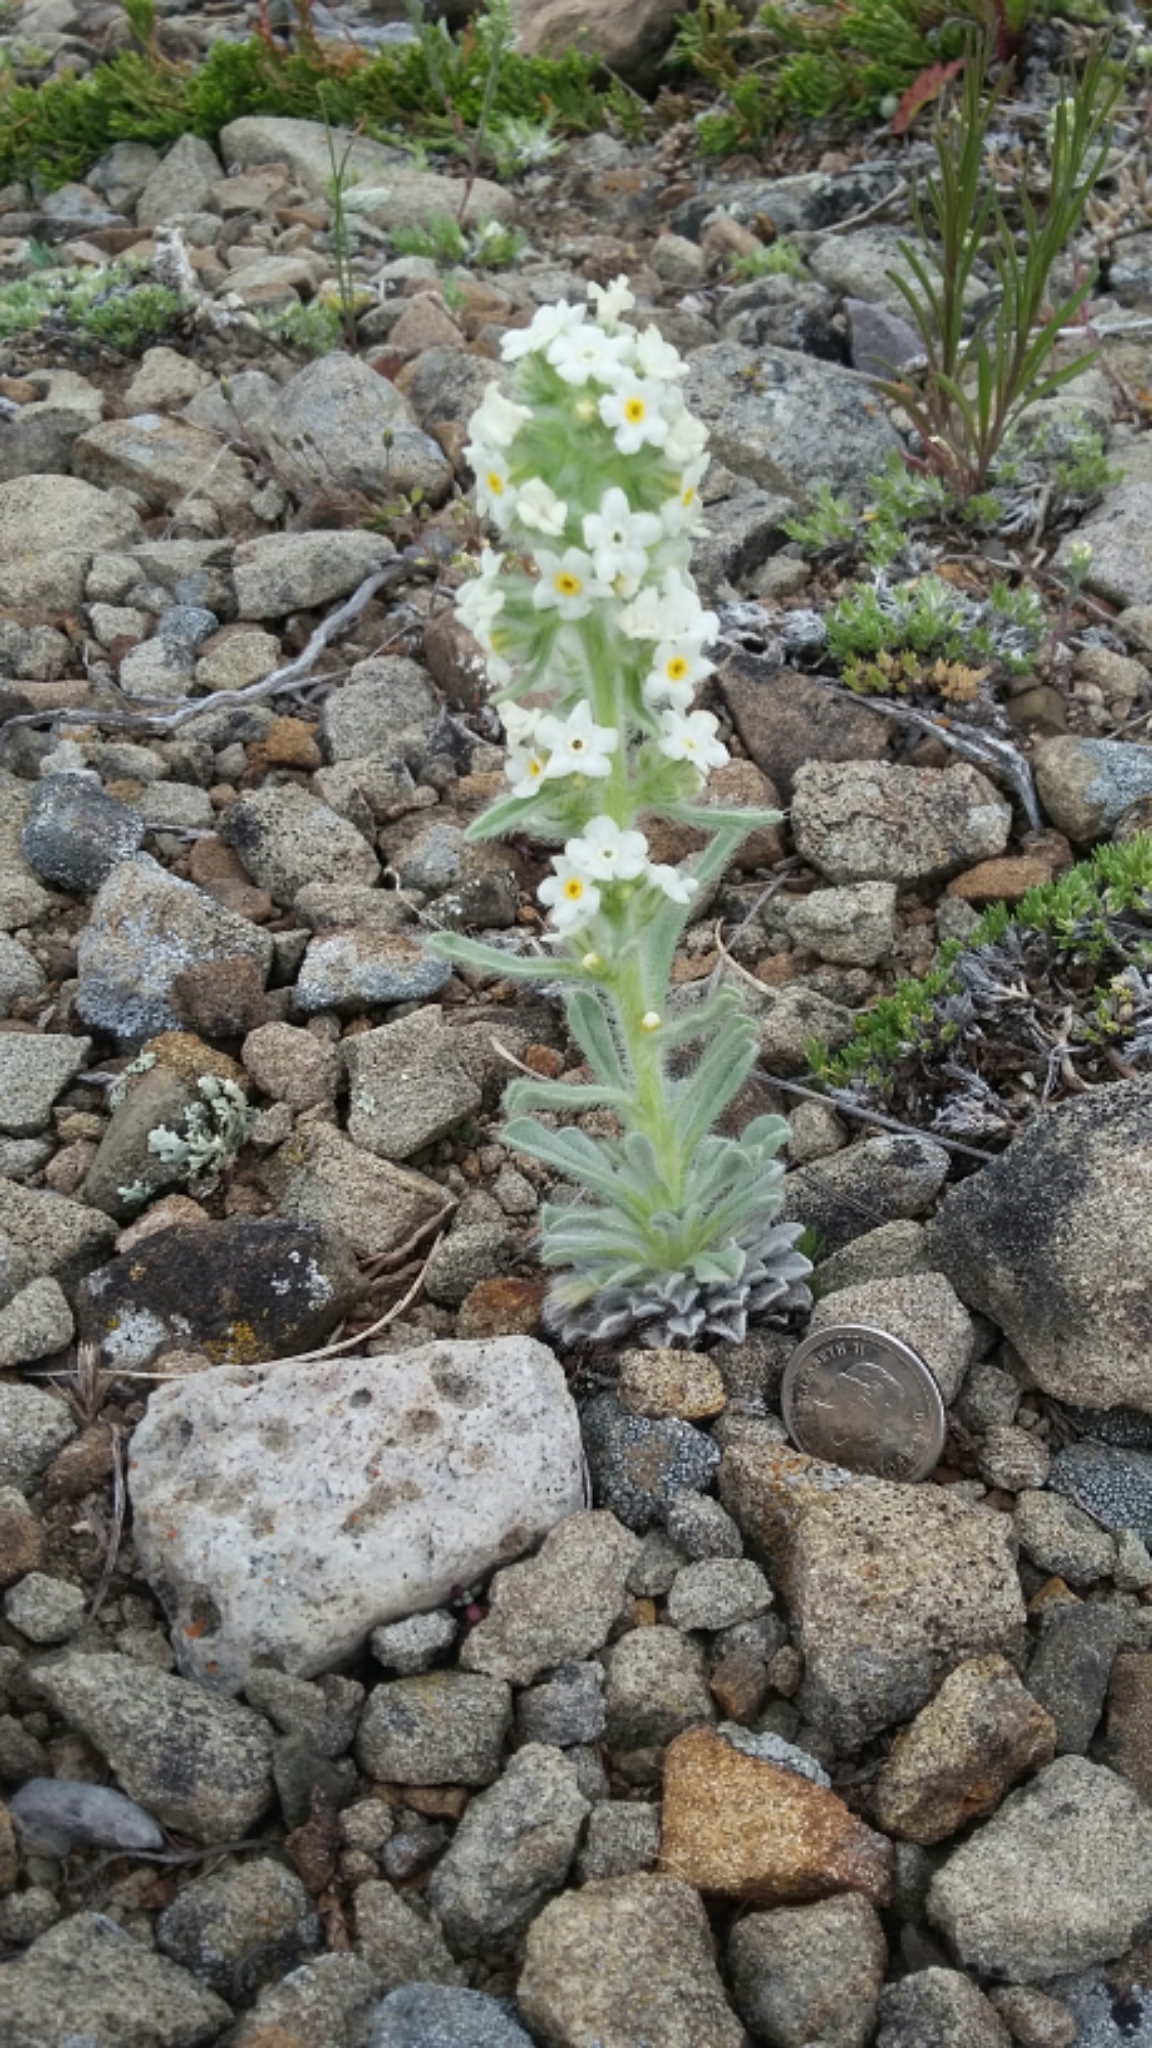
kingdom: Plantae
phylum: Tracheophyta
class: Magnoliopsida
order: Boraginales
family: Boraginaceae
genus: Oreocarya
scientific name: Oreocarya glomerata
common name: Macoun's cryptantha
